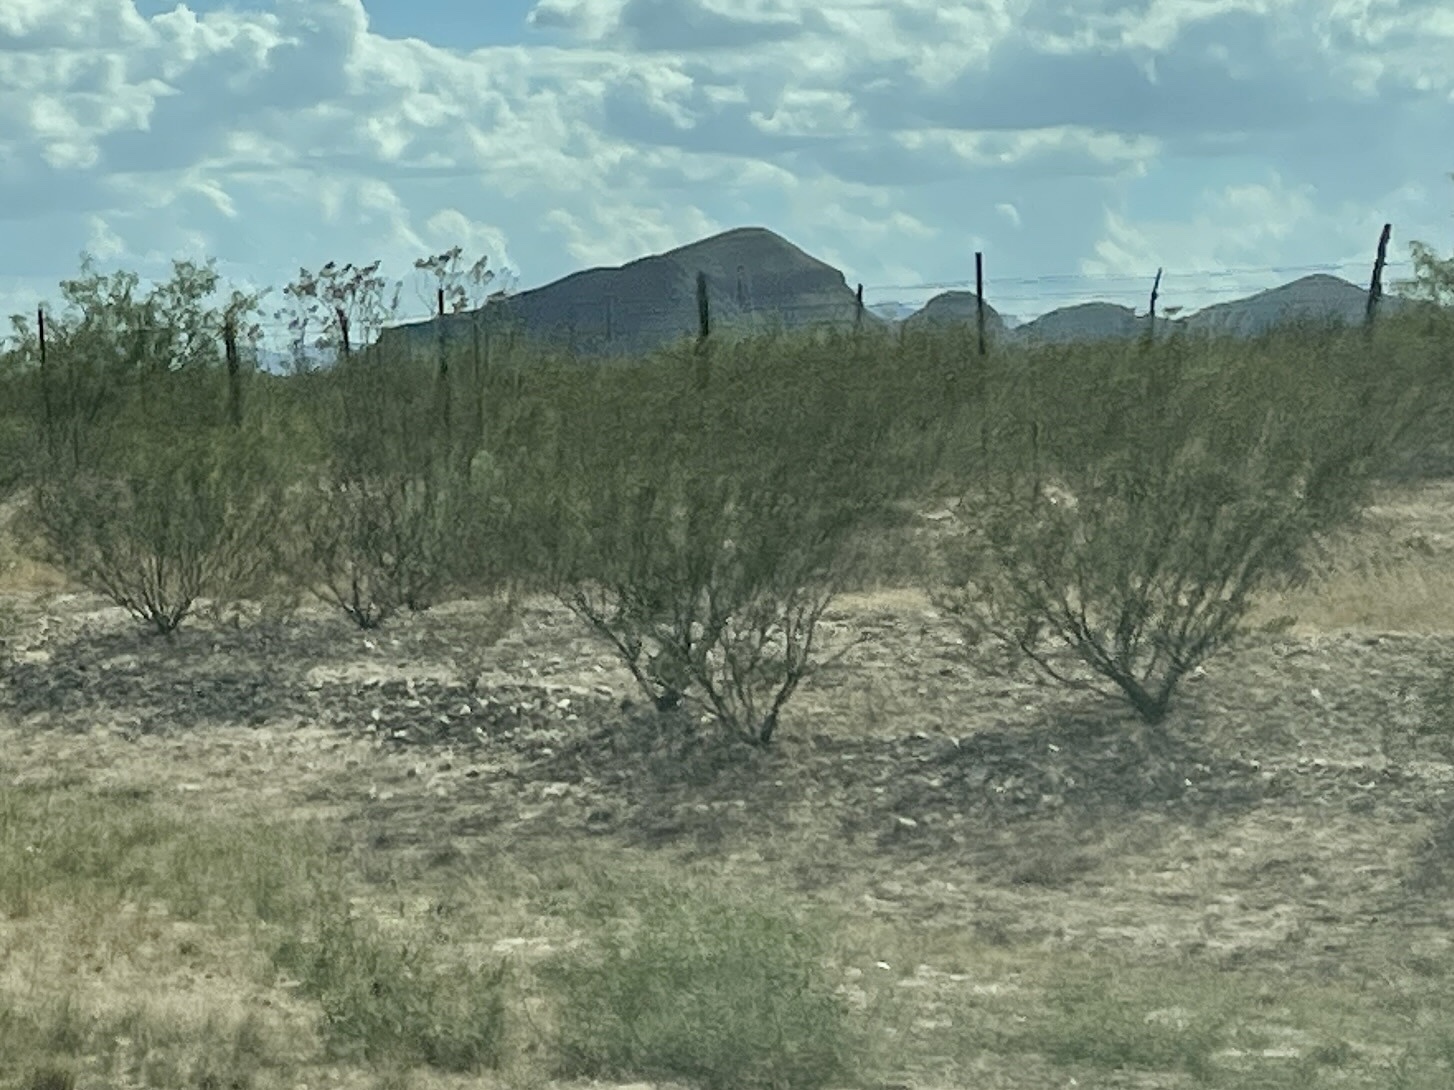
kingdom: Plantae
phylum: Tracheophyta
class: Magnoliopsida
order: Zygophyllales
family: Zygophyllaceae
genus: Larrea
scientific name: Larrea tridentata
